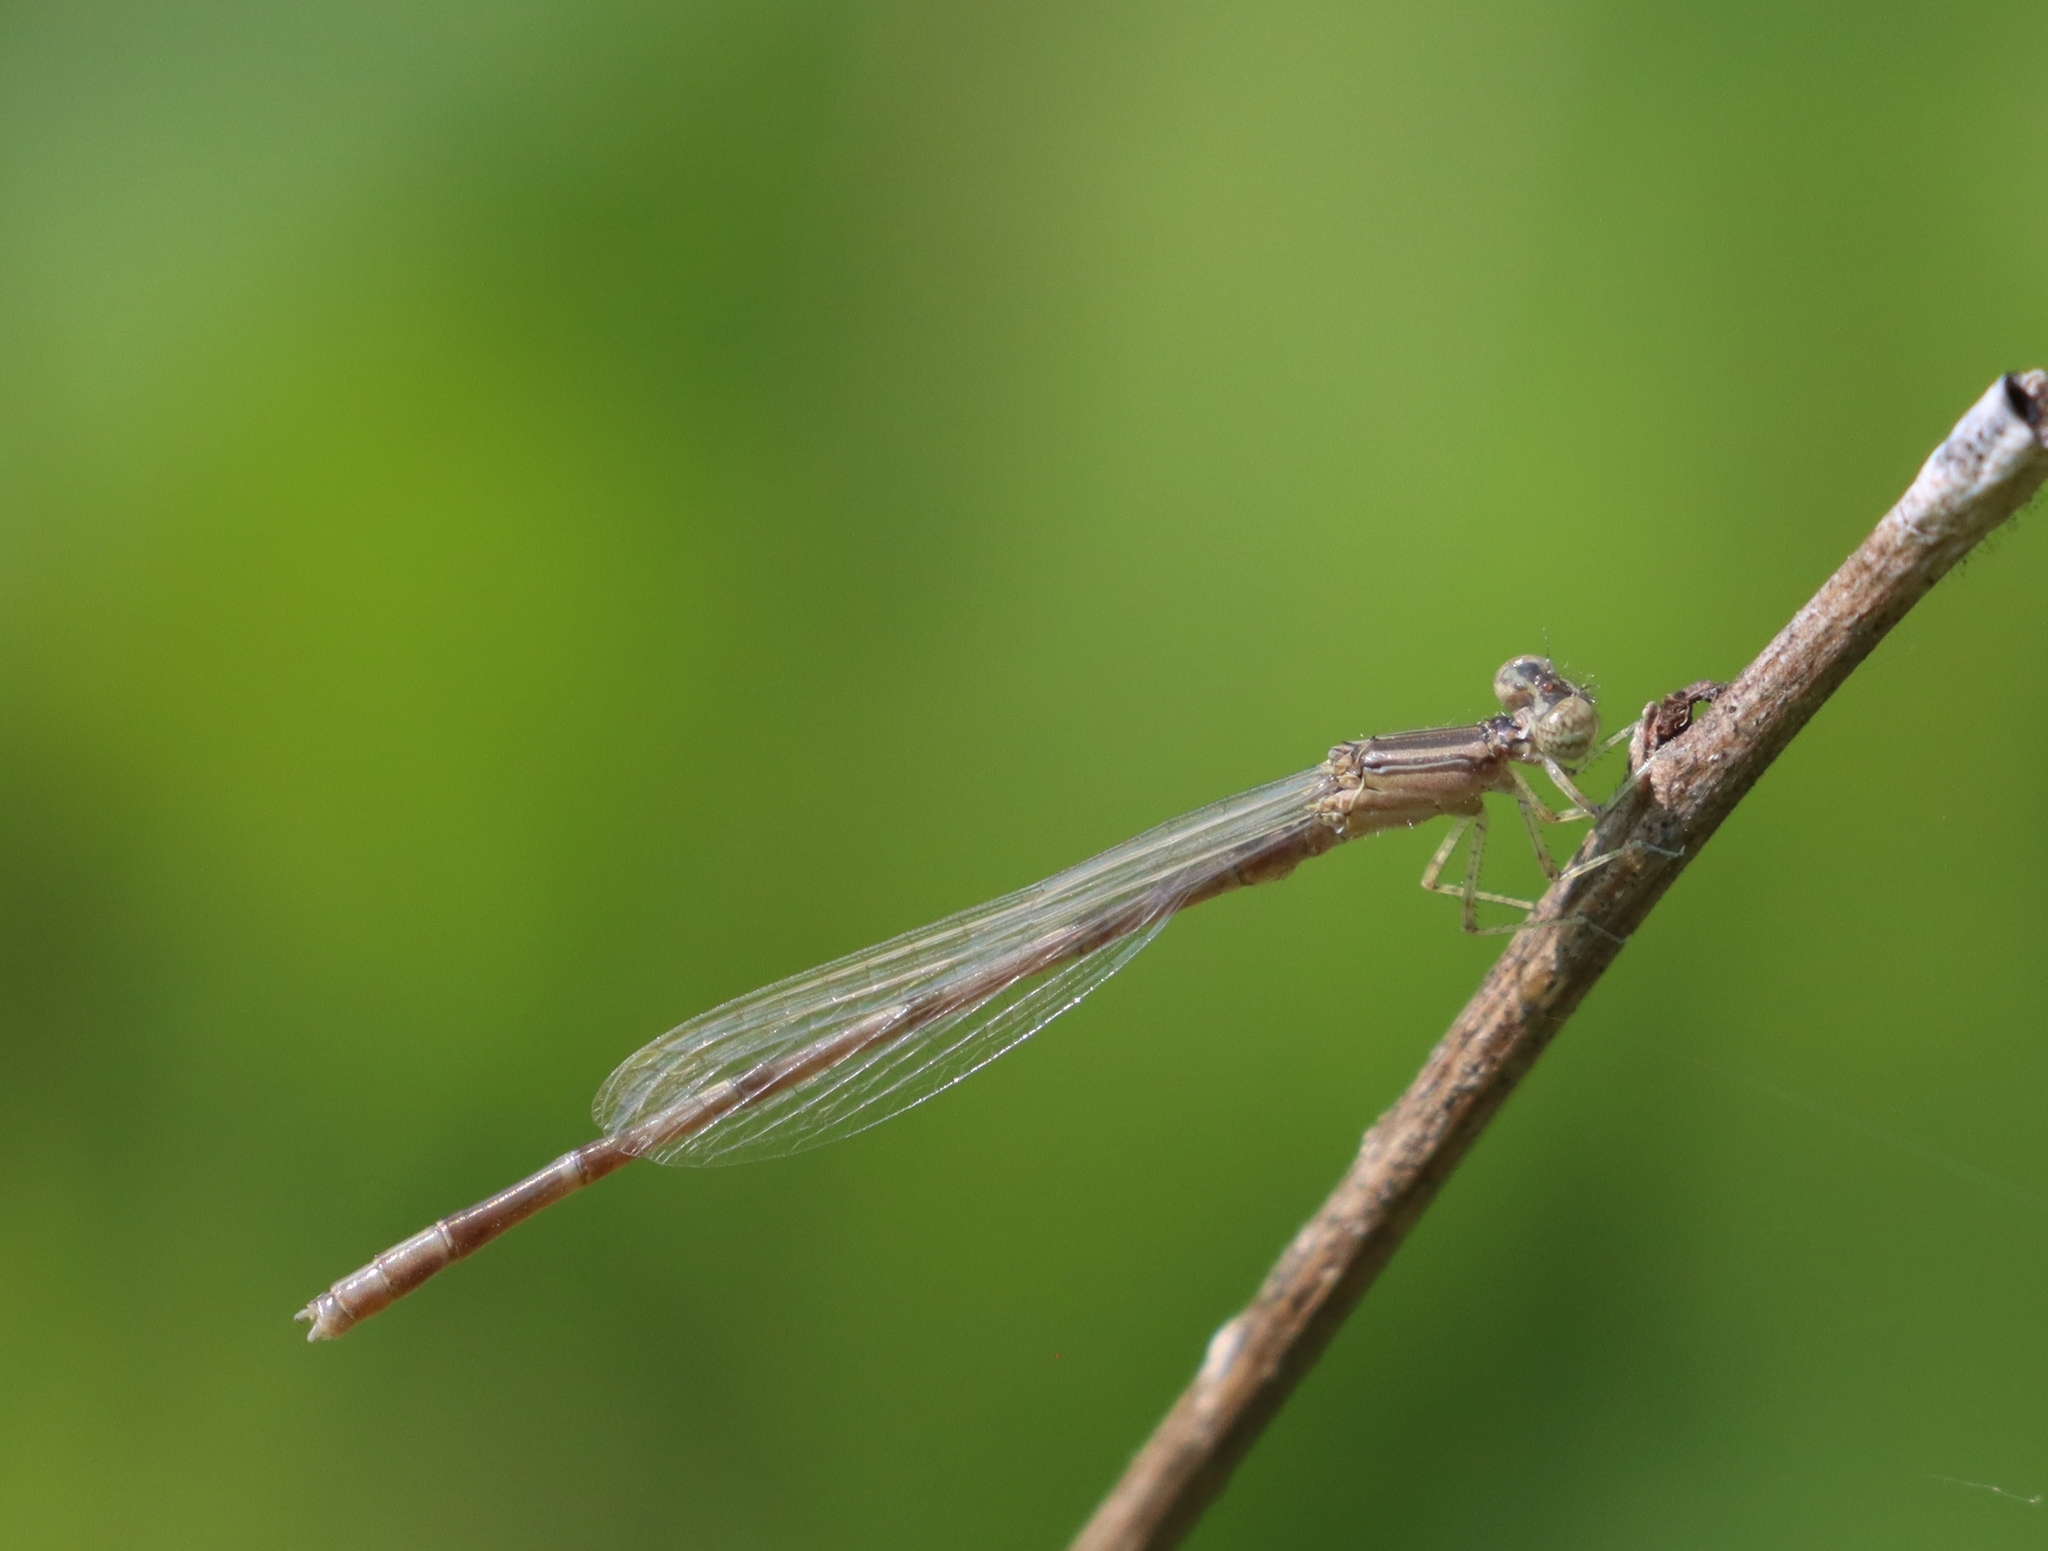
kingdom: Animalia
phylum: Arthropoda
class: Insecta
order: Odonata
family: Coenagrionidae
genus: Enallagma
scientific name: Enallagma basidens
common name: Double-striped bluet
